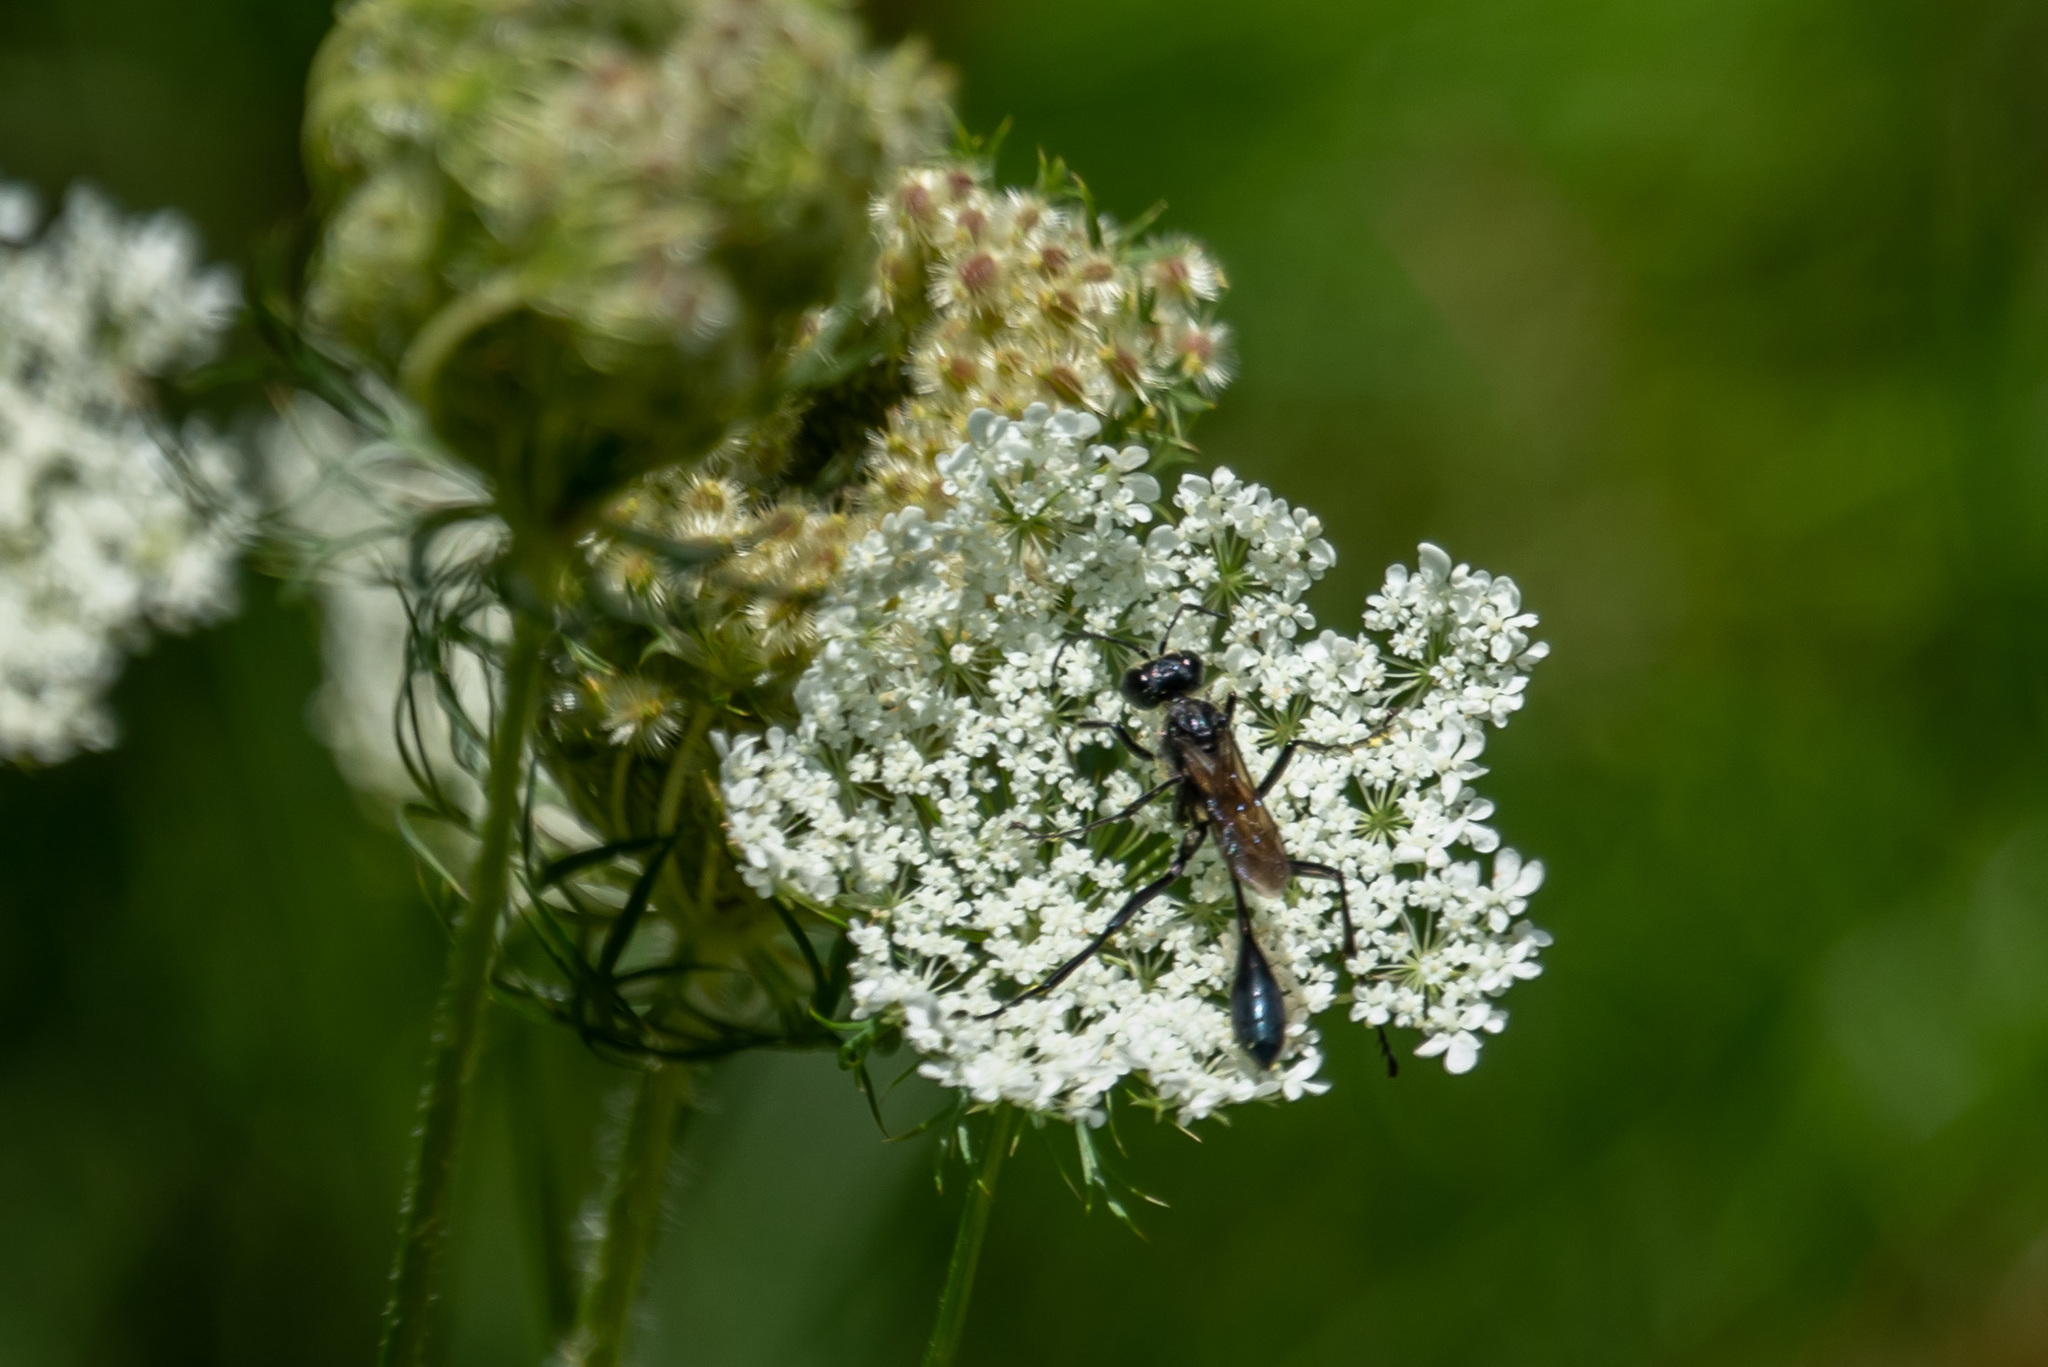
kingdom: Animalia
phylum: Arthropoda
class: Insecta
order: Hymenoptera
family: Sphecidae
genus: Eremnophila
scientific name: Eremnophila aureonotata
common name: Gold-marked thread-waisted wasp
